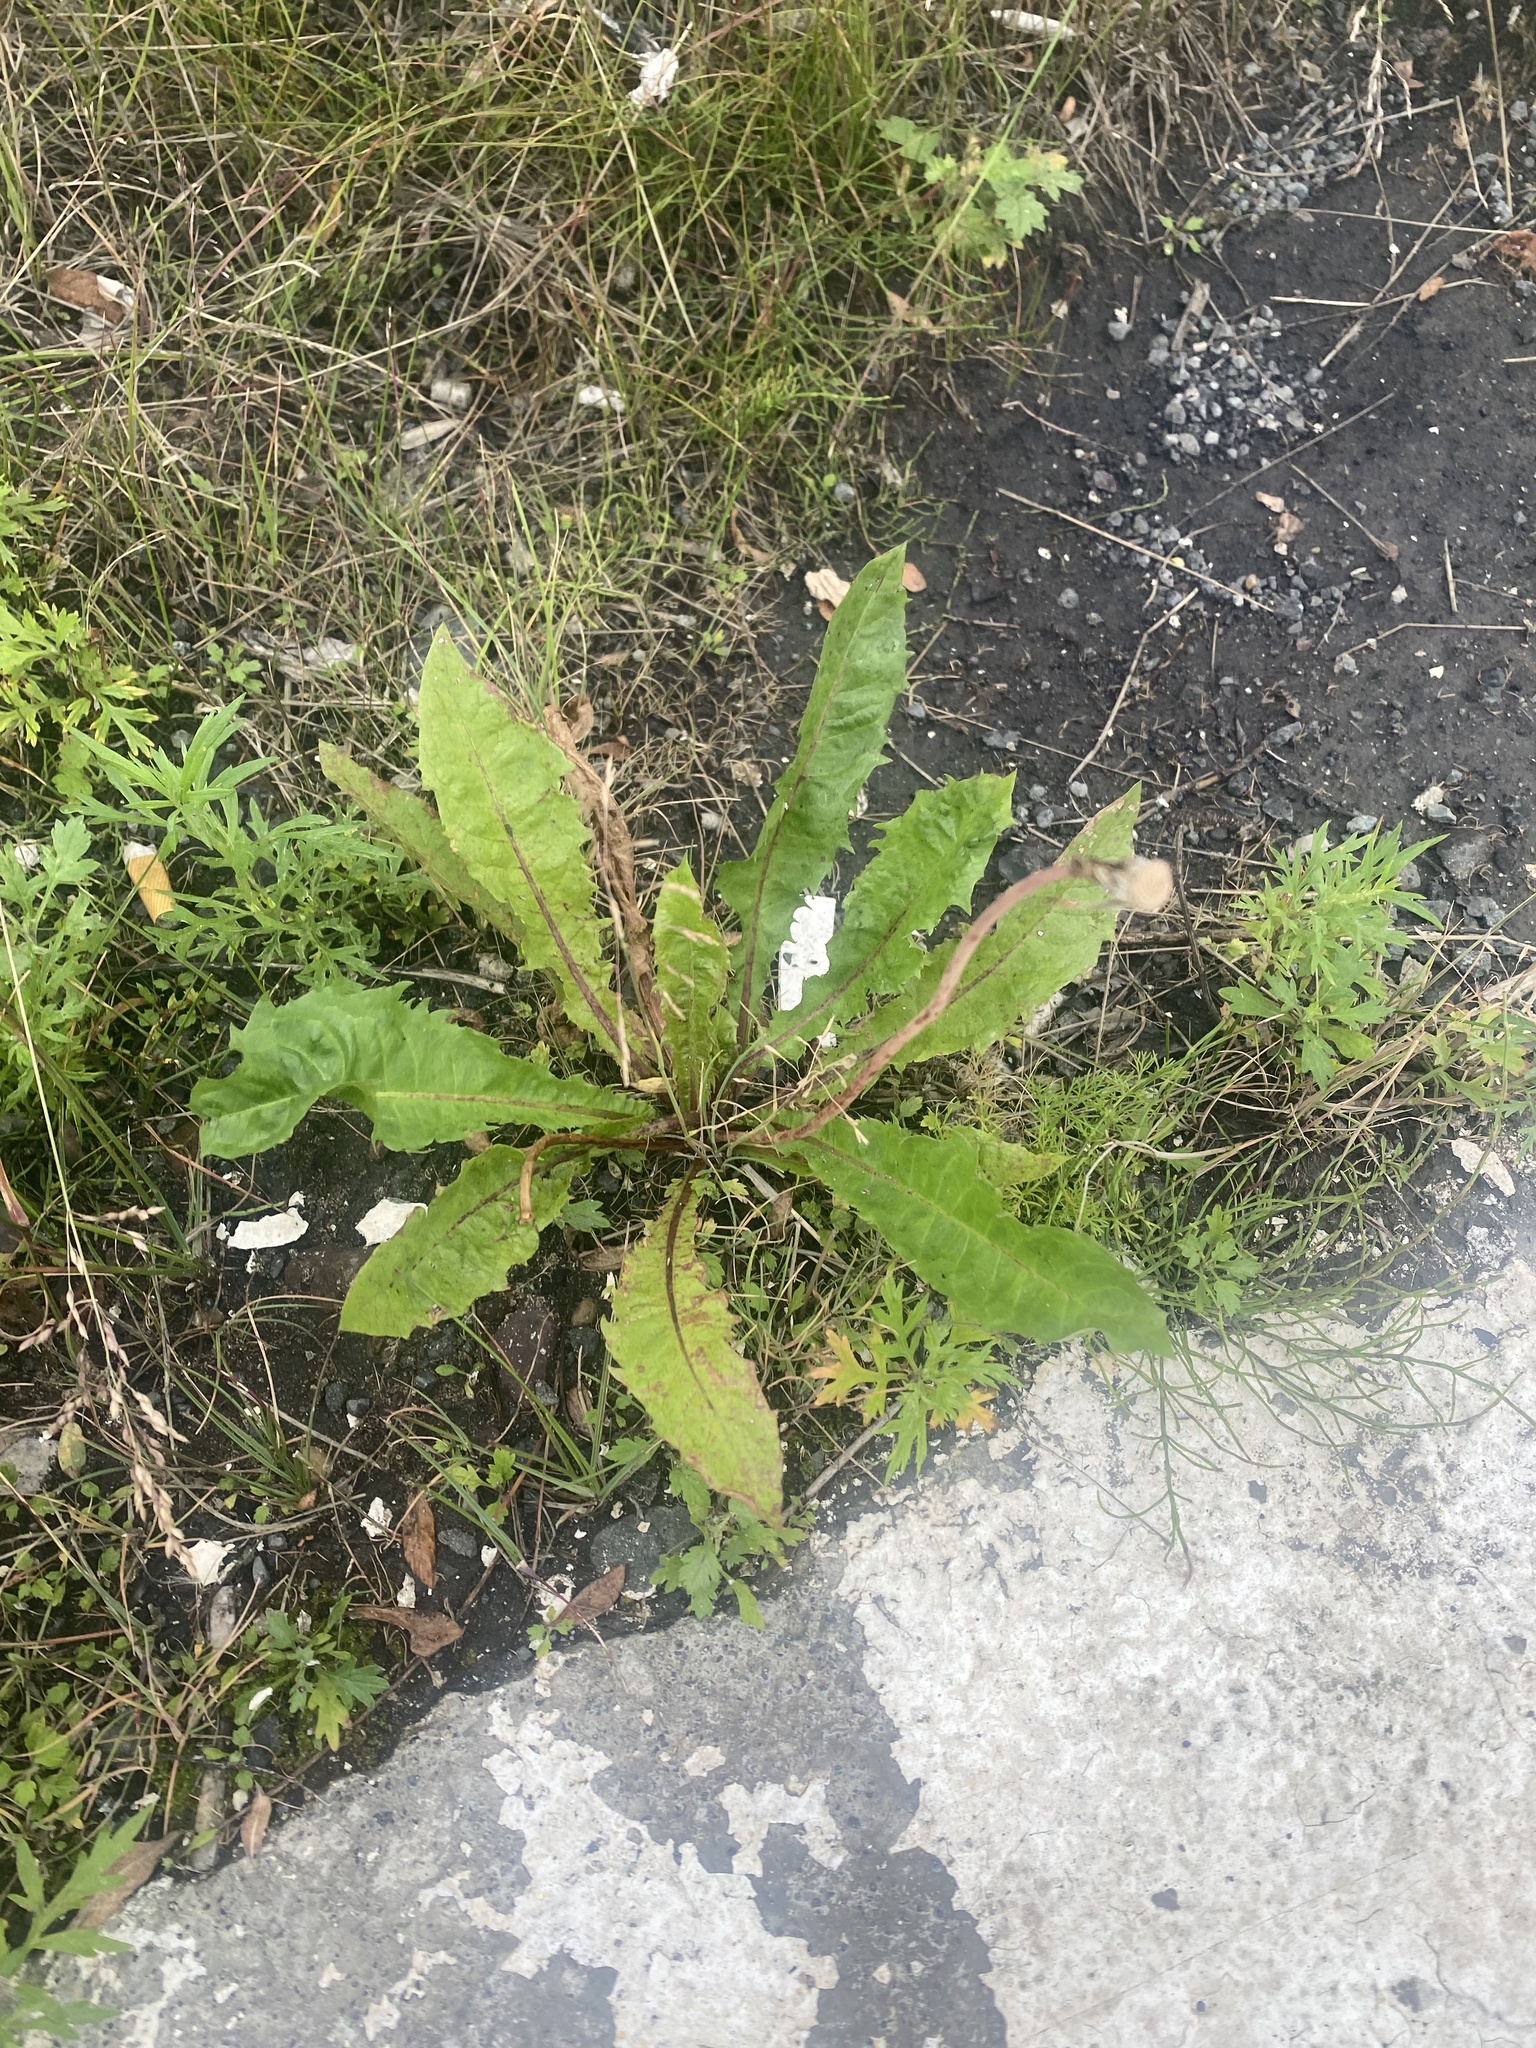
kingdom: Plantae
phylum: Tracheophyta
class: Magnoliopsida
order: Asterales
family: Asteraceae
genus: Taraxacum
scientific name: Taraxacum ceratophorum
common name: Horn-bearing dandelion
